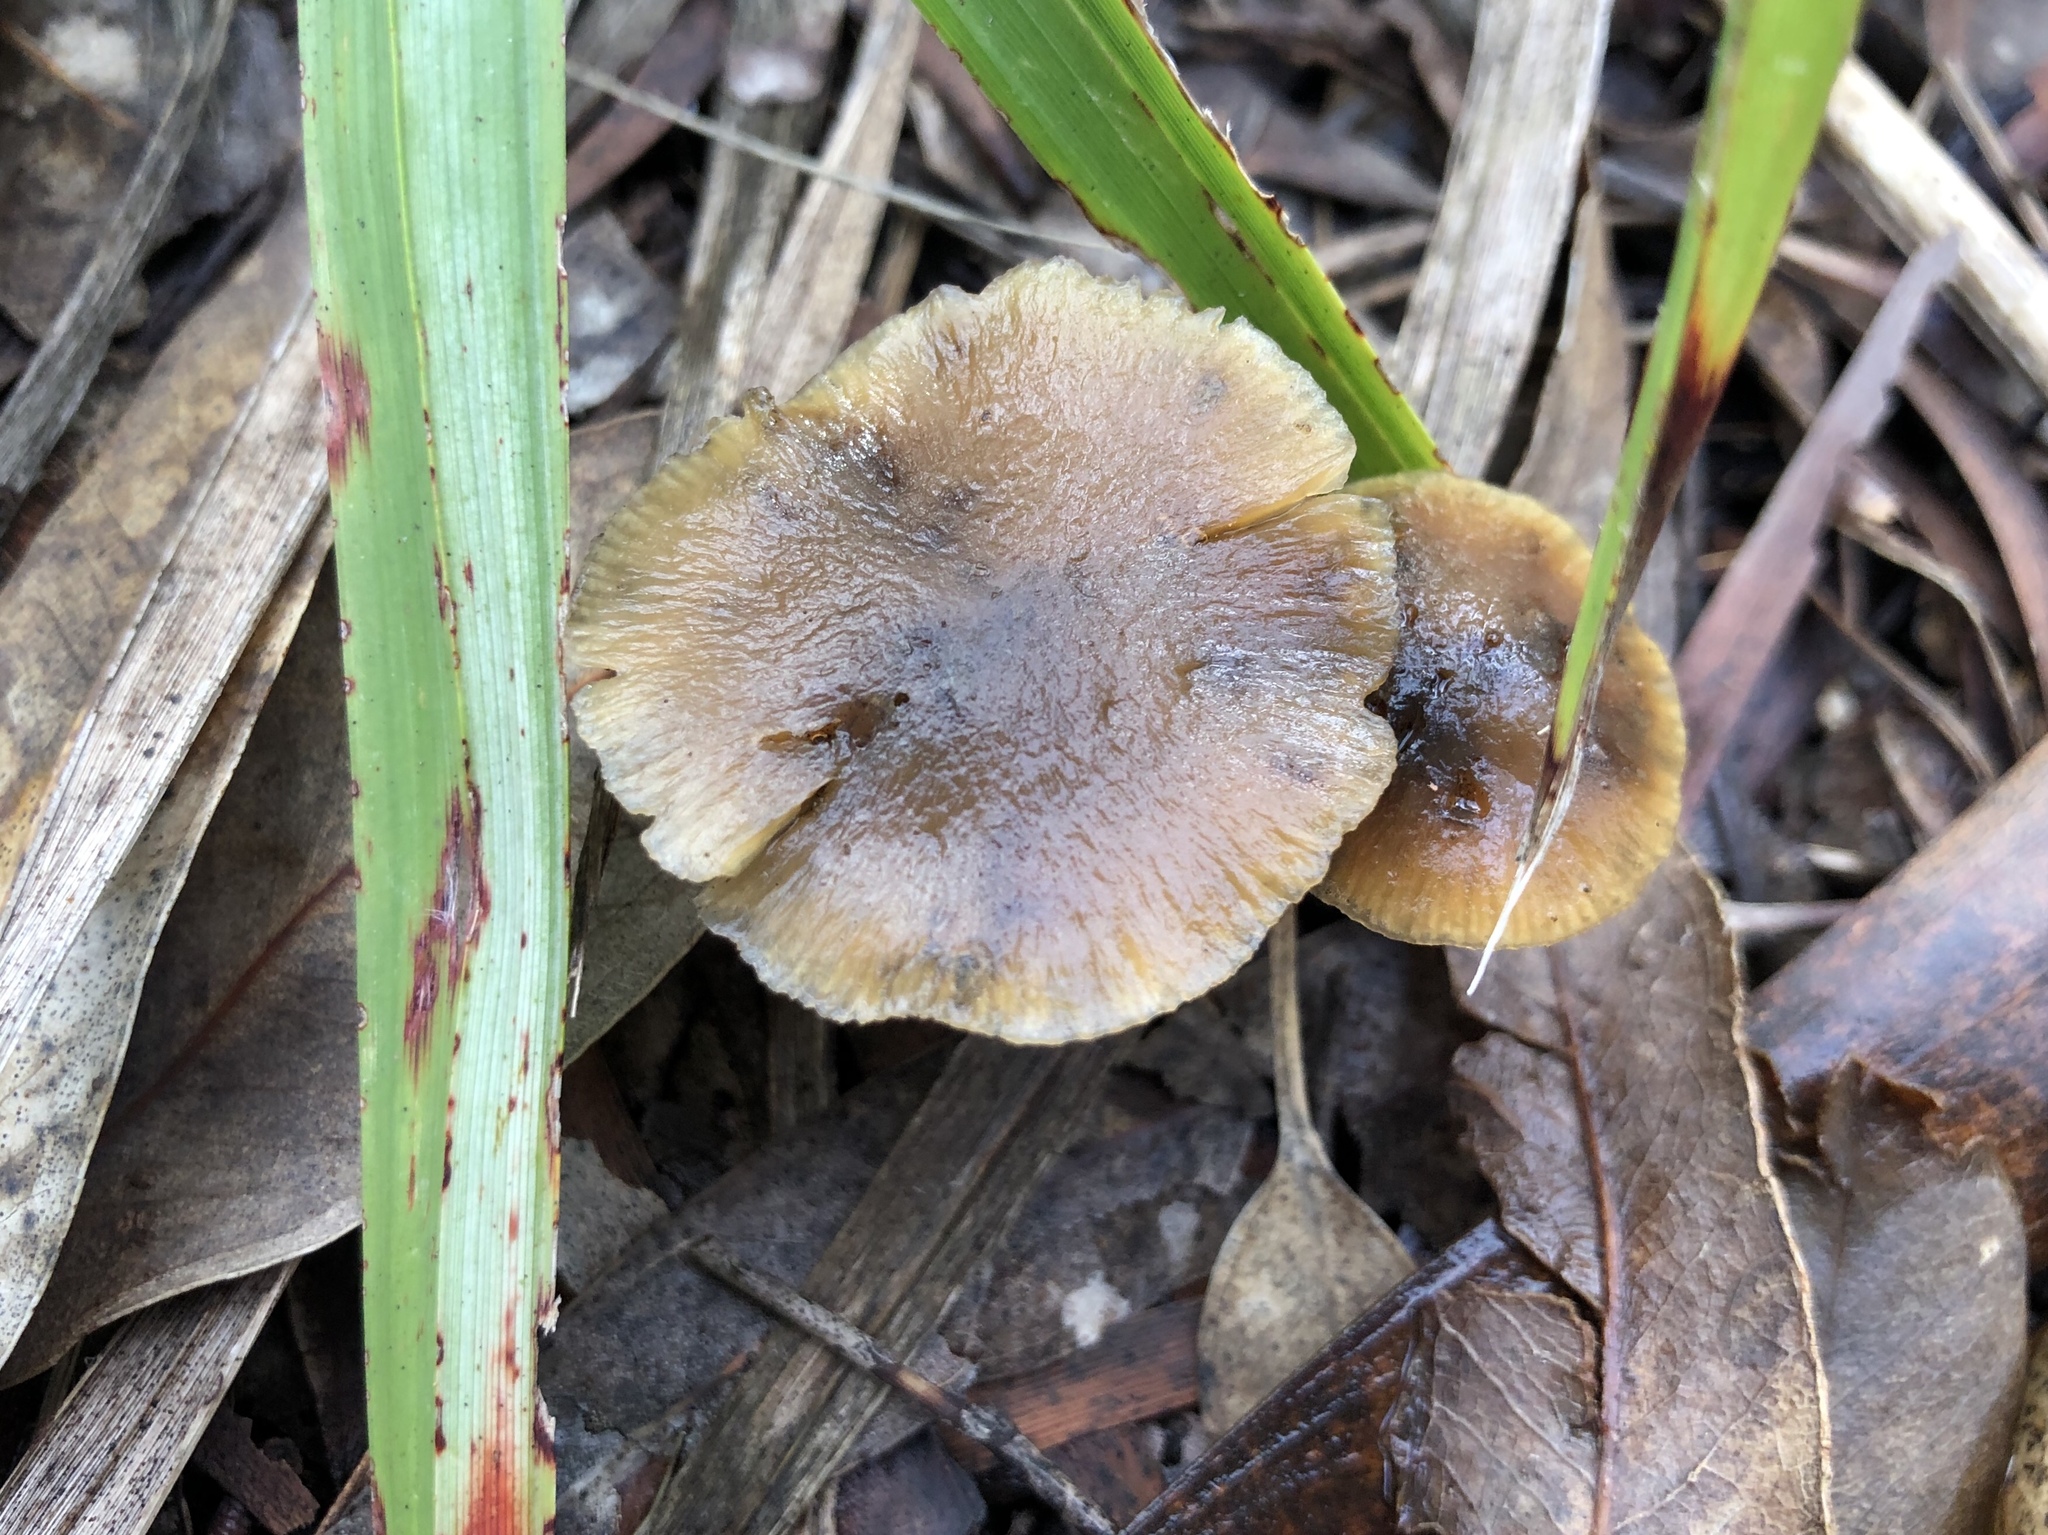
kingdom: Fungi
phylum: Basidiomycota
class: Agaricomycetes
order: Agaricales
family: Hymenogastraceae
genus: Psilocybe
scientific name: Psilocybe subaeruginosa
